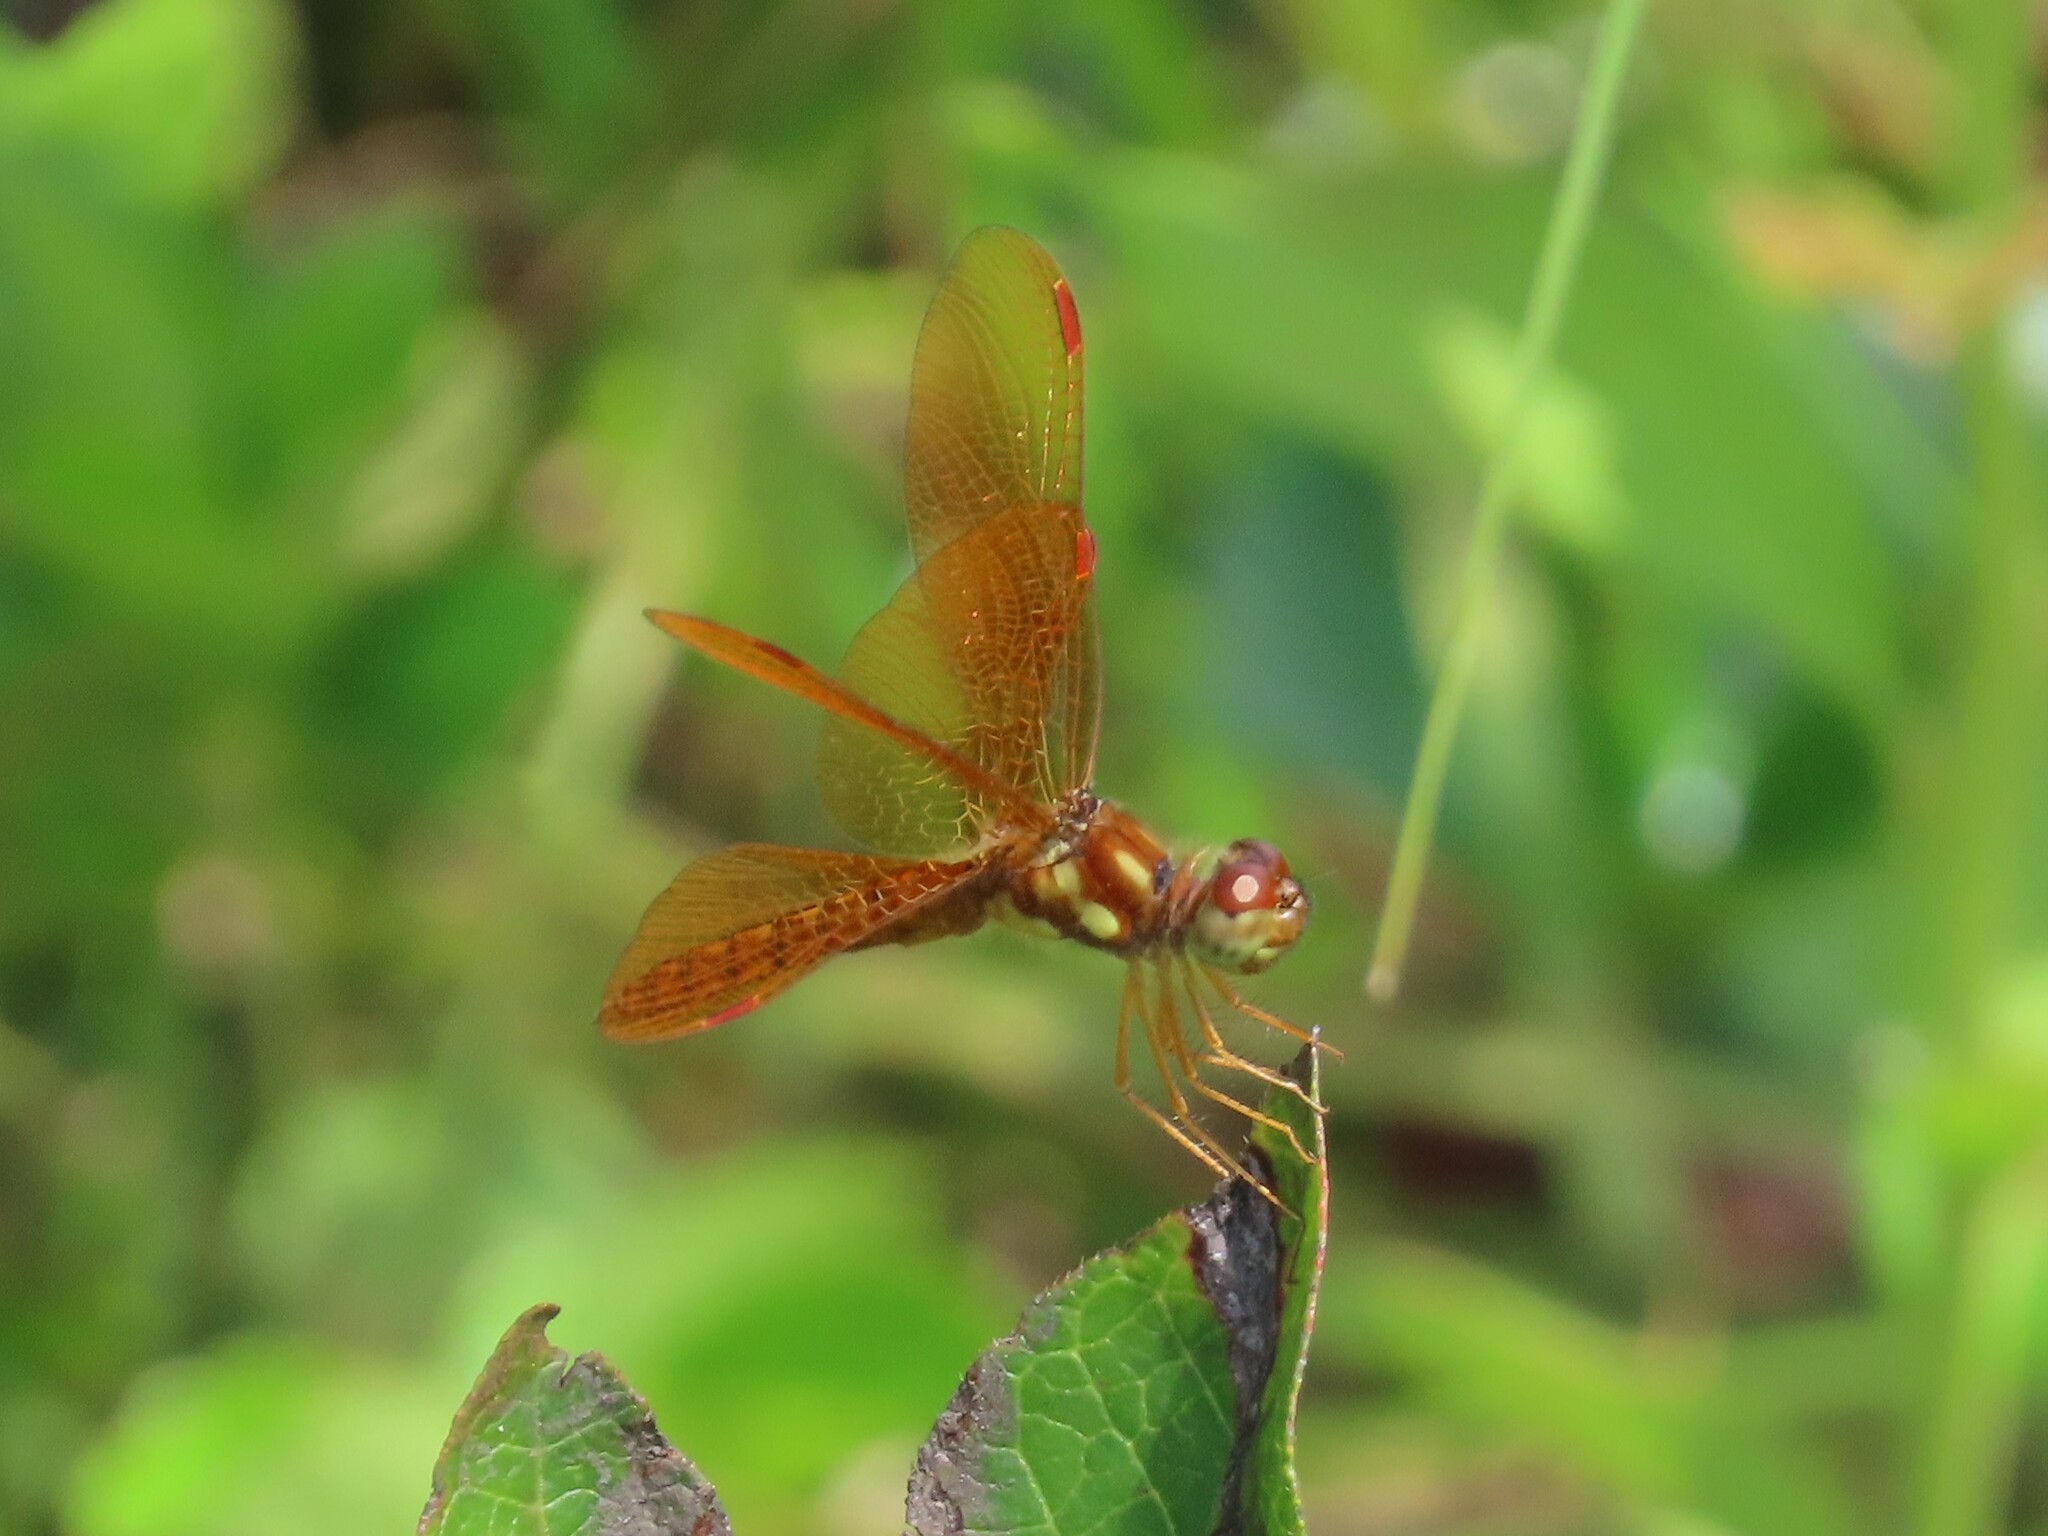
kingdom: Animalia
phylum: Arthropoda
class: Insecta
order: Odonata
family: Libellulidae
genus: Perithemis
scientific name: Perithemis tenera
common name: Eastern amberwing
